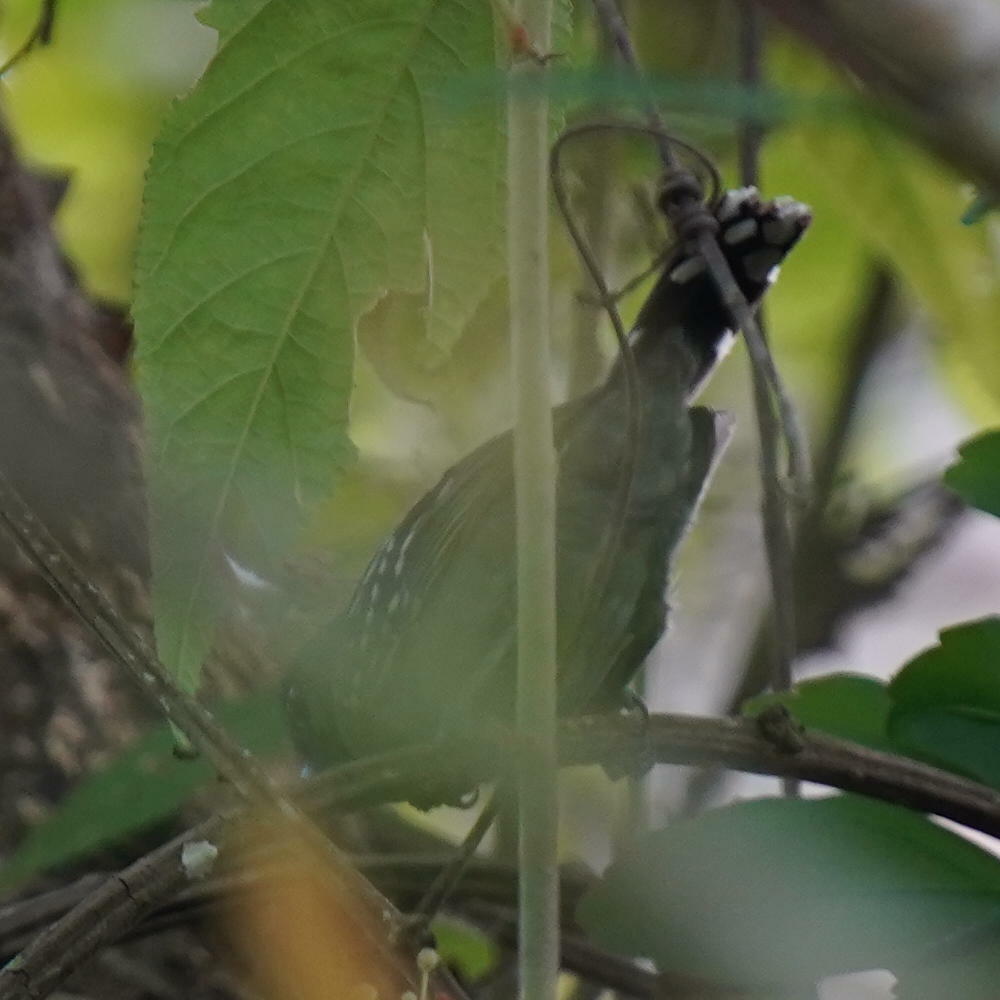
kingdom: Animalia
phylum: Chordata
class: Aves
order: Passeriformes
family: Thamnophilidae
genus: Thamnophilus
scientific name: Thamnophilus atrinucha
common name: Black-crowned antshrike
